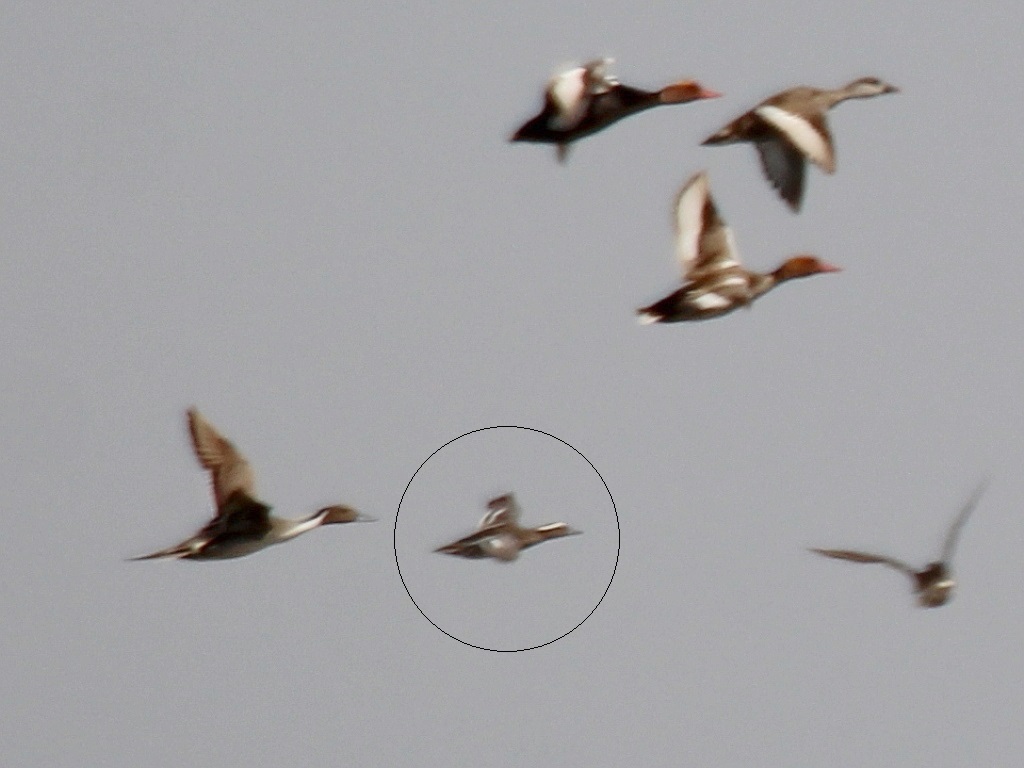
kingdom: Animalia
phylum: Chordata
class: Aves
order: Anseriformes
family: Anatidae
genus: Spatula
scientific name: Spatula querquedula
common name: Garganey
